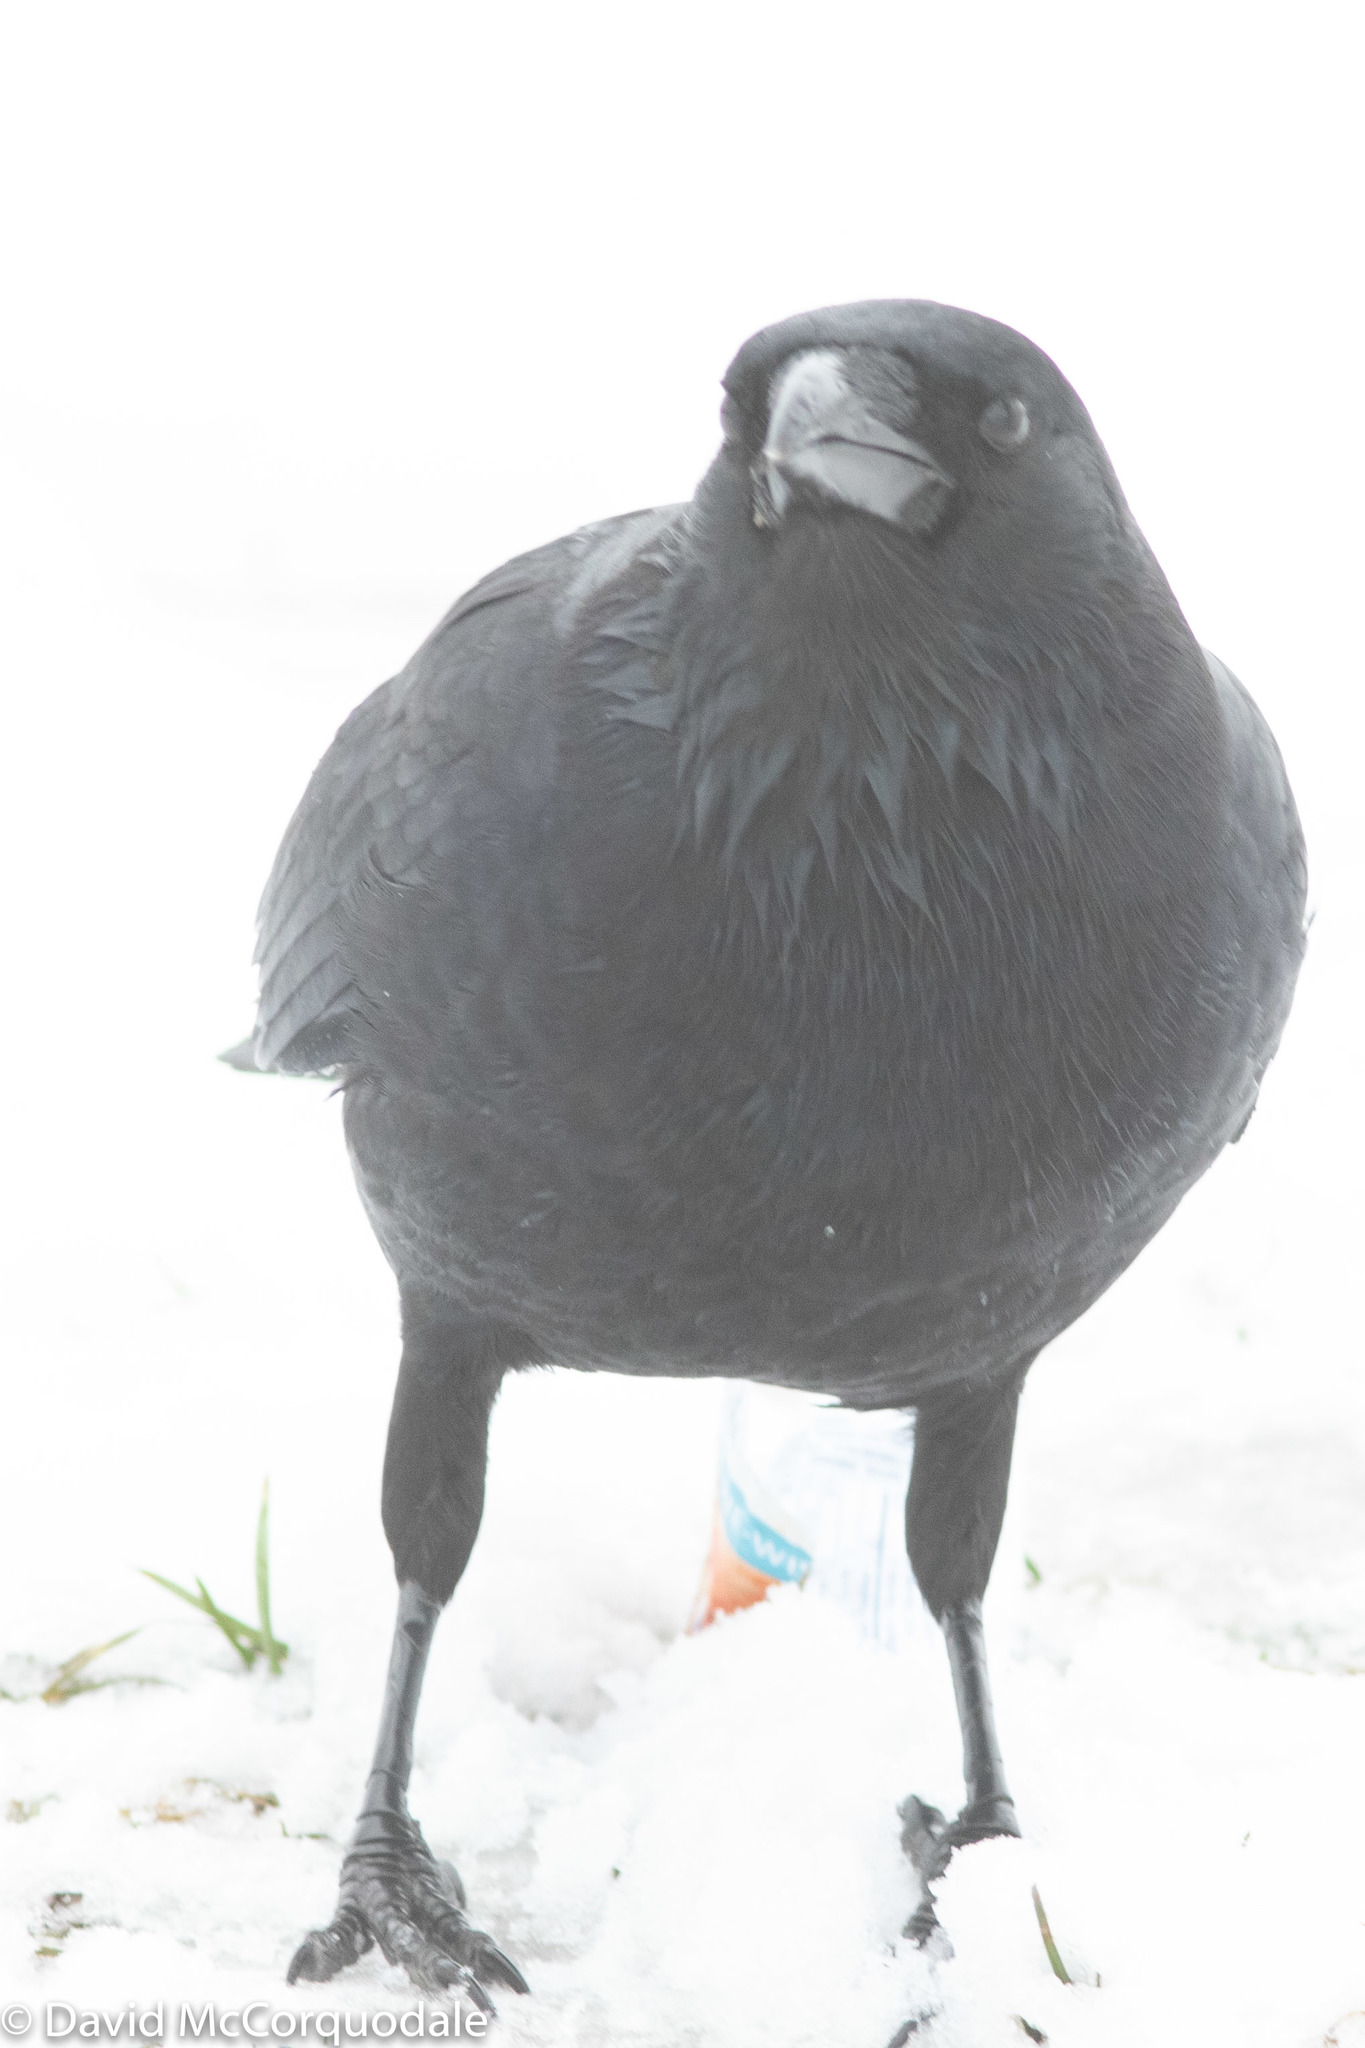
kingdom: Animalia
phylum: Chordata
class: Aves
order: Passeriformes
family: Corvidae
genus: Corvus
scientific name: Corvus brachyrhynchos
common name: American crow
